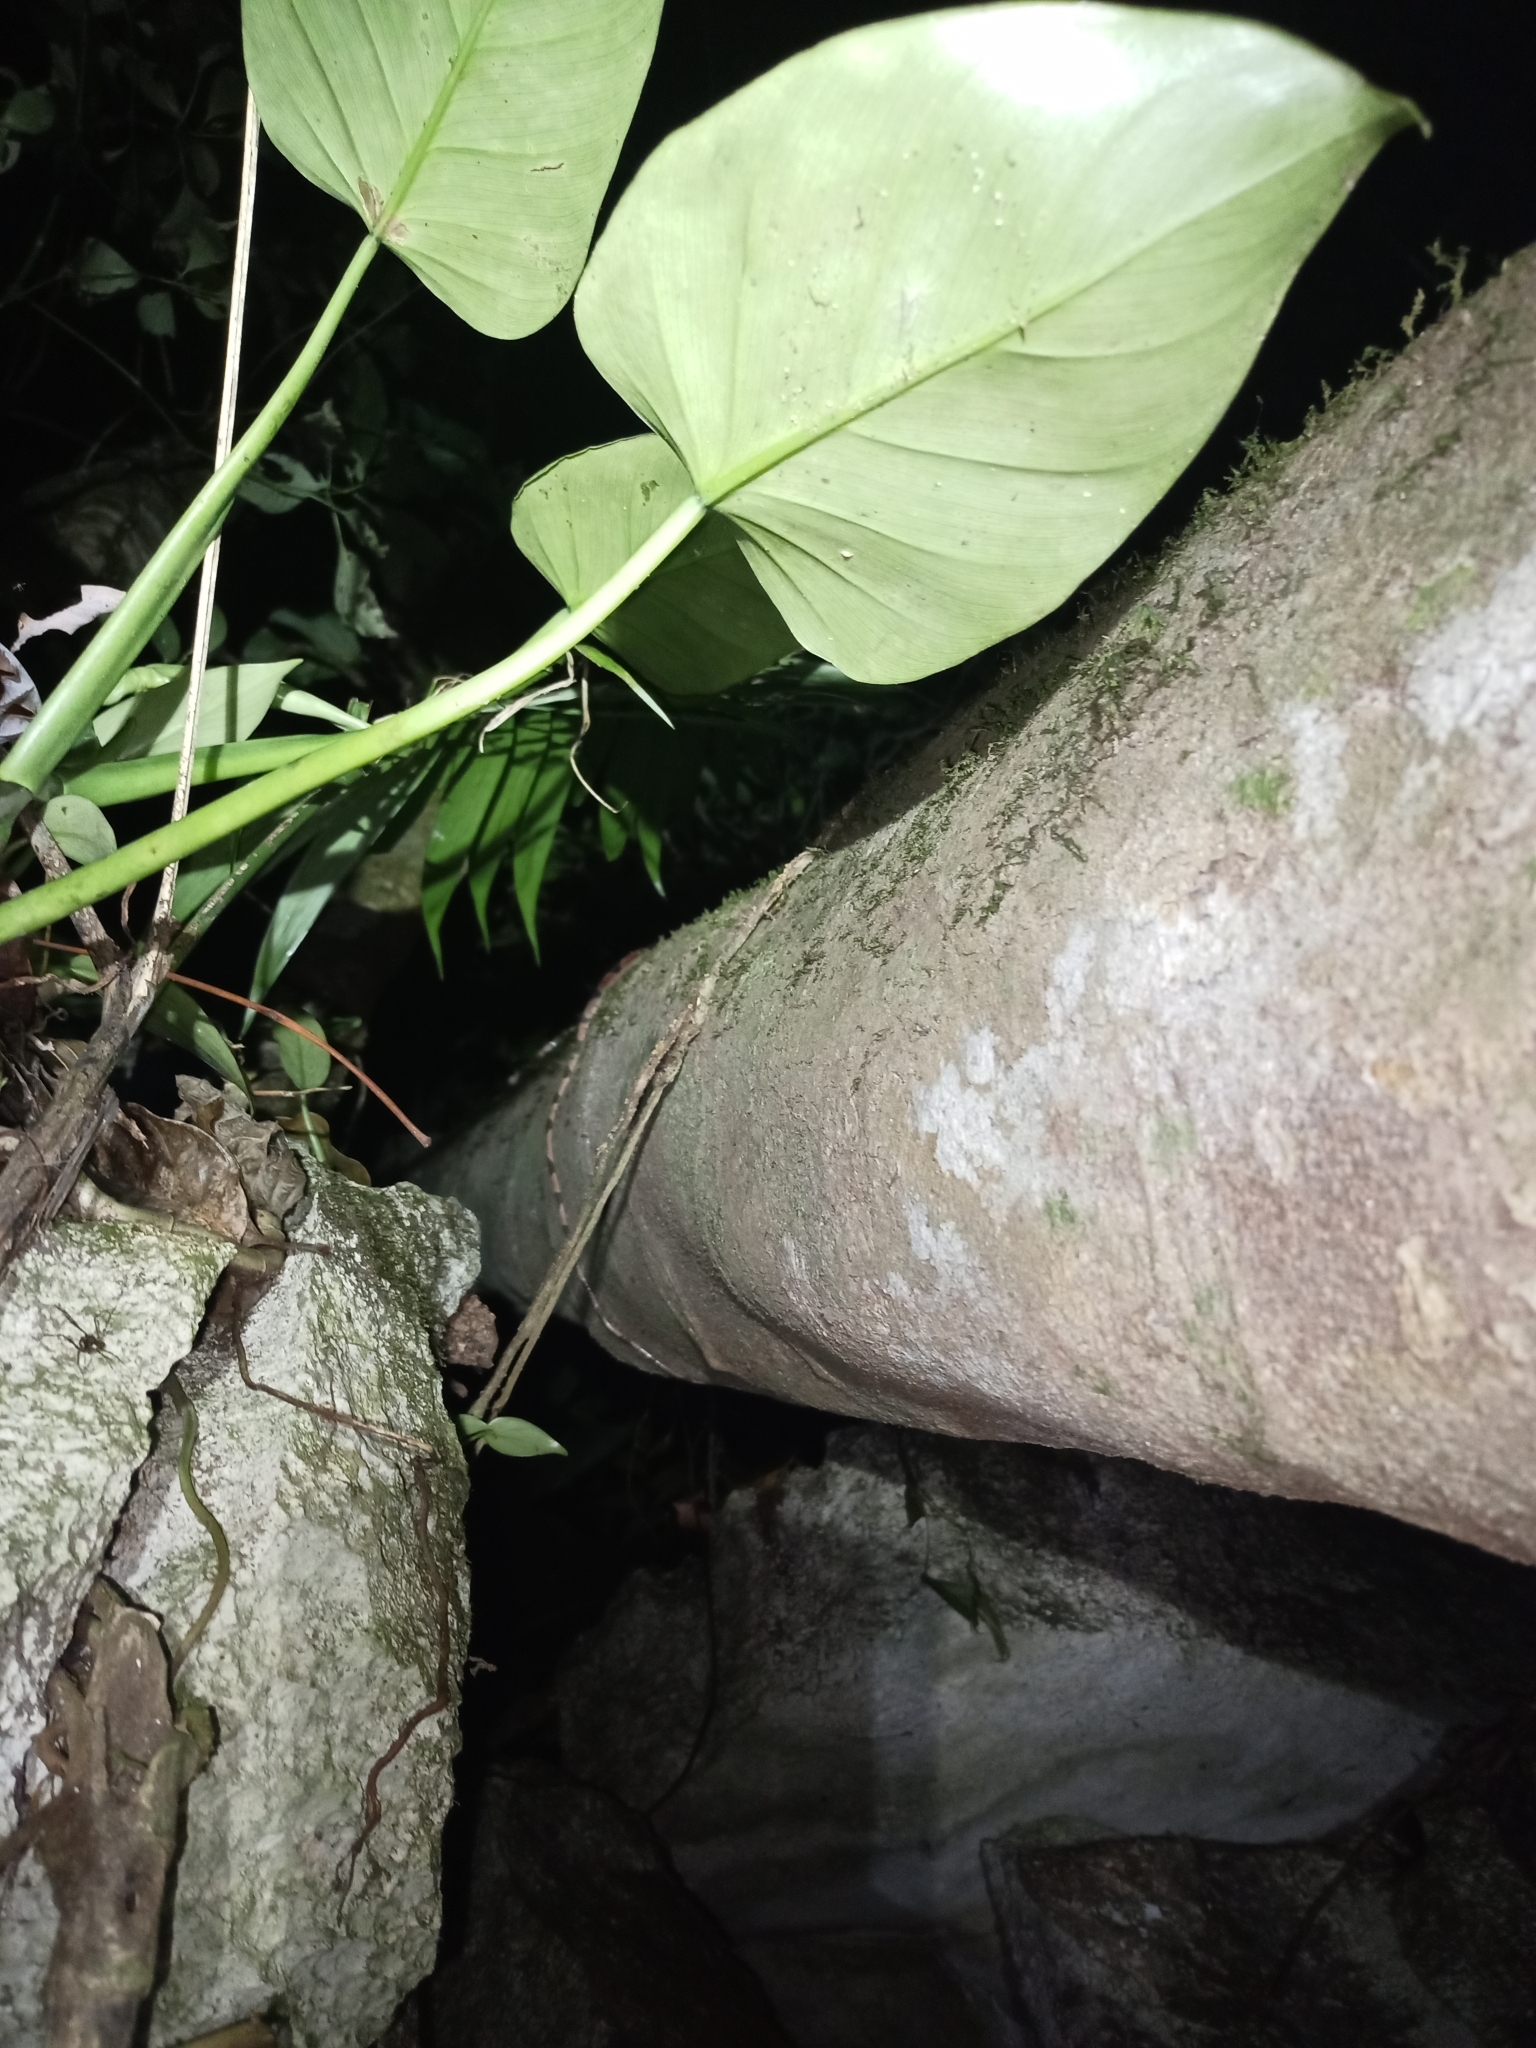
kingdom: Animalia
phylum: Chordata
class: Squamata
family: Colubridae
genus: Imantodes
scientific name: Imantodes cenchoa
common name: Blunthead tree snake
